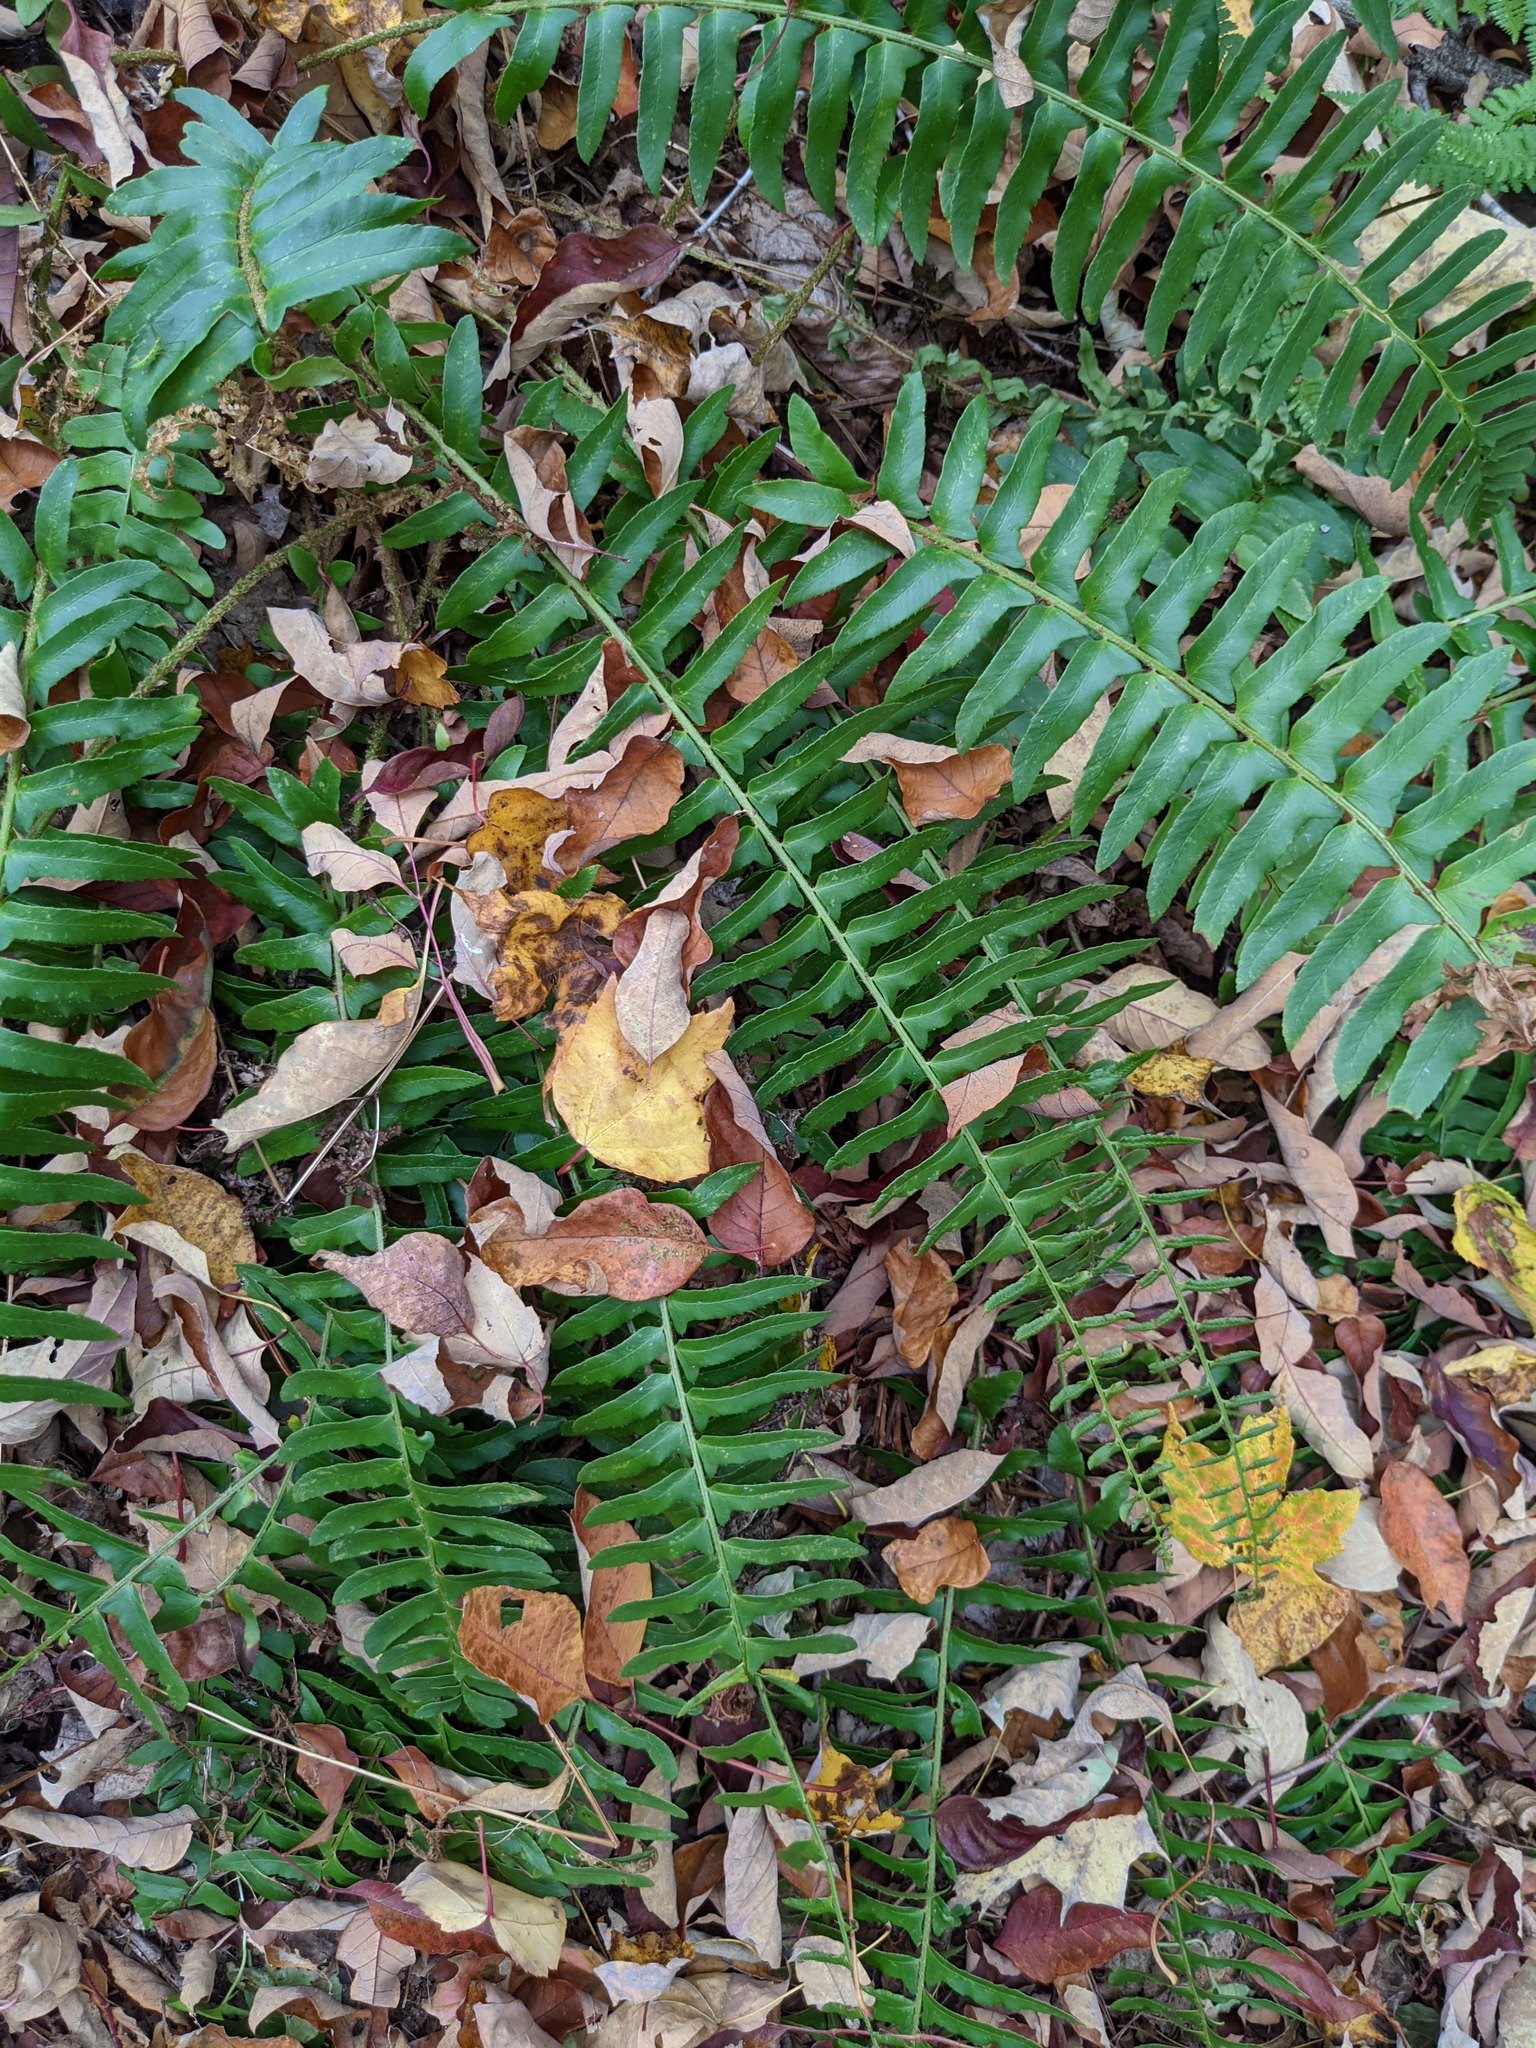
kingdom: Plantae
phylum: Tracheophyta
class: Polypodiopsida
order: Polypodiales
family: Dryopteridaceae
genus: Polystichum
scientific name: Polystichum acrostichoides
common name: Christmas fern
